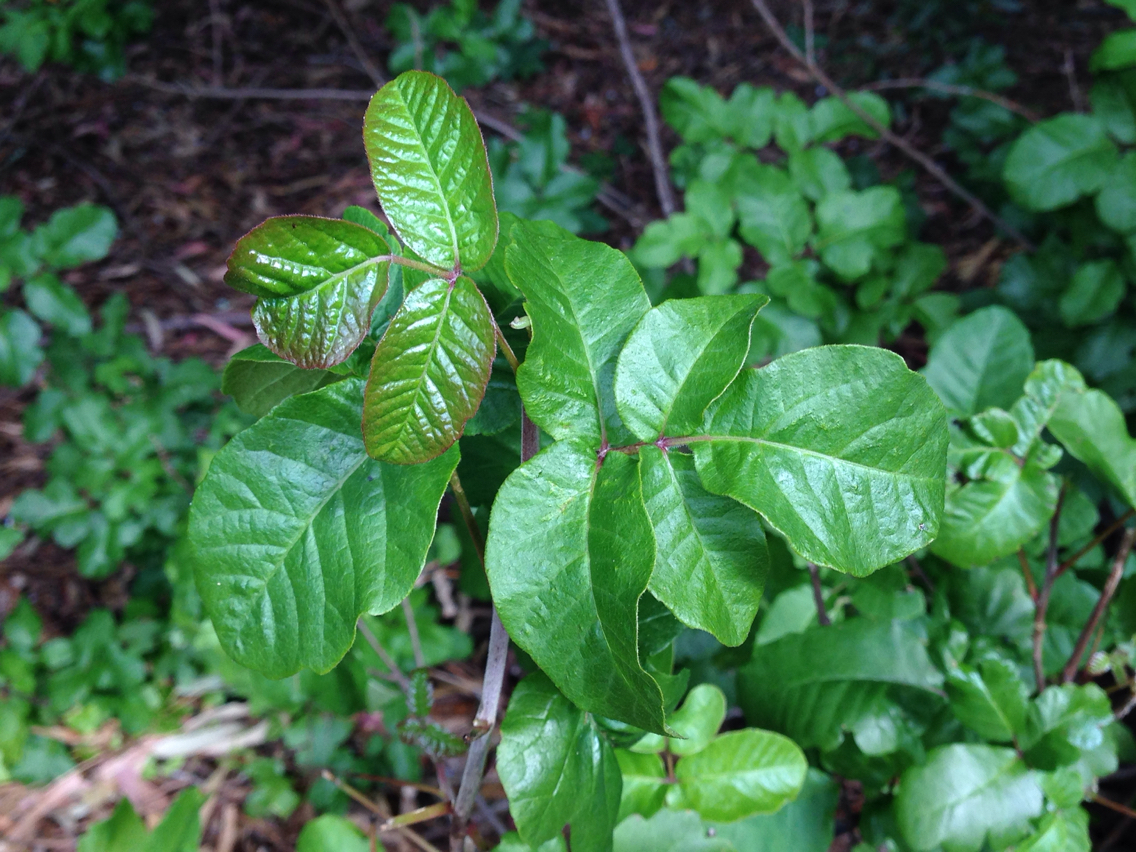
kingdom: Plantae
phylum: Tracheophyta
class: Magnoliopsida
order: Sapindales
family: Anacardiaceae
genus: Toxicodendron
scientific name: Toxicodendron diversilobum
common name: Pacific poison-oak
